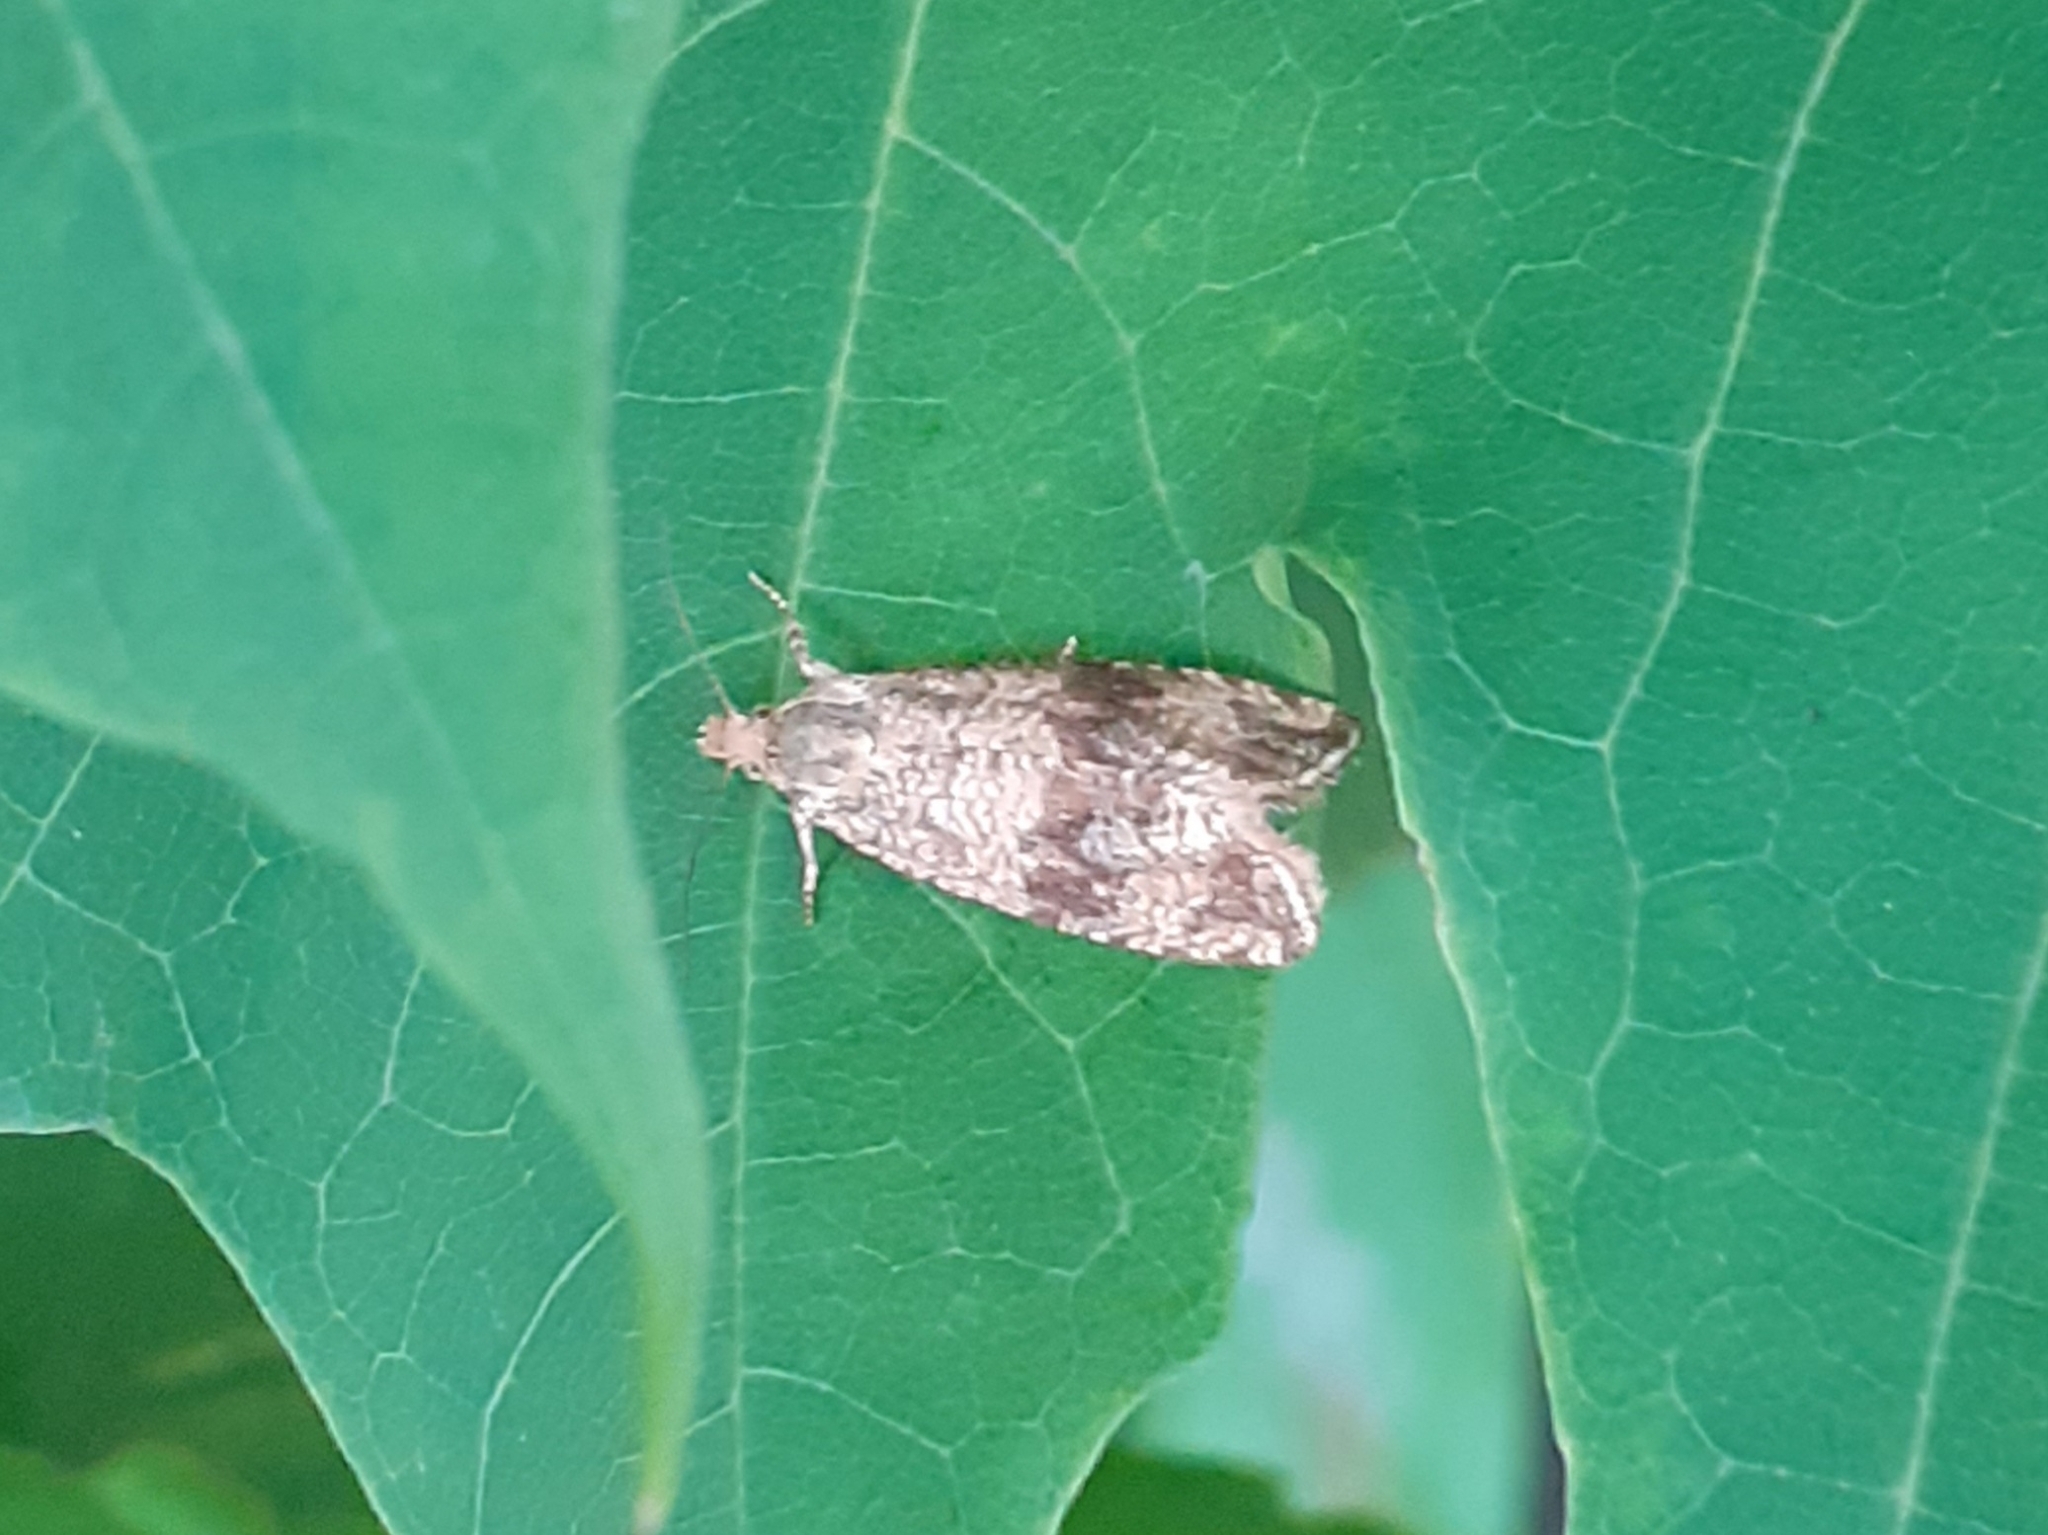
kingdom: Animalia
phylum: Arthropoda
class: Insecta
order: Lepidoptera
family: Tortricidae
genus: Celypha
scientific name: Celypha striana
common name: Barred marble
